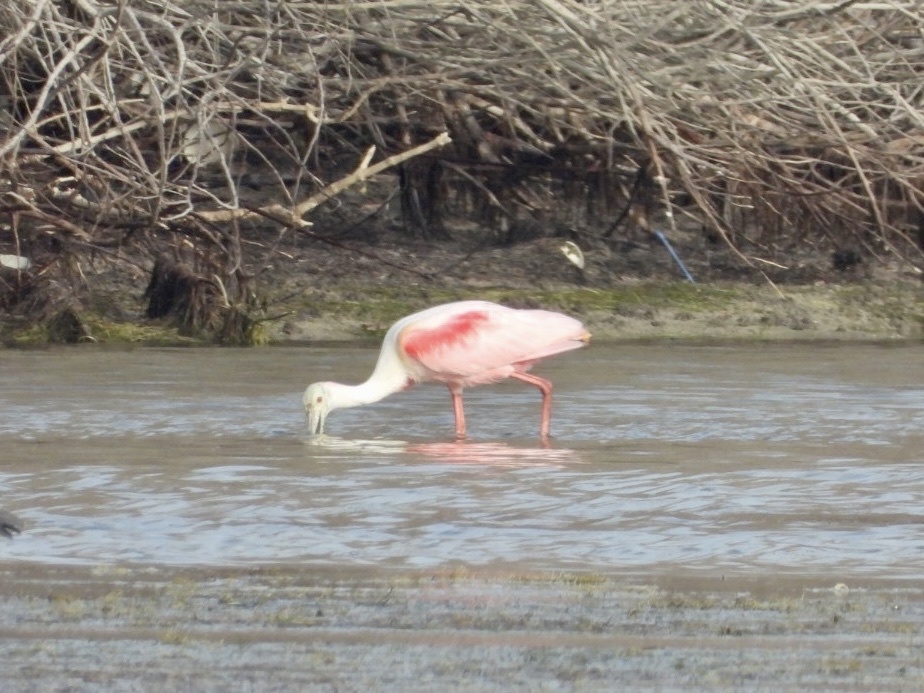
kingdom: Animalia
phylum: Chordata
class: Aves
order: Pelecaniformes
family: Threskiornithidae
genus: Platalea
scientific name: Platalea ajaja
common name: Roseate spoonbill
